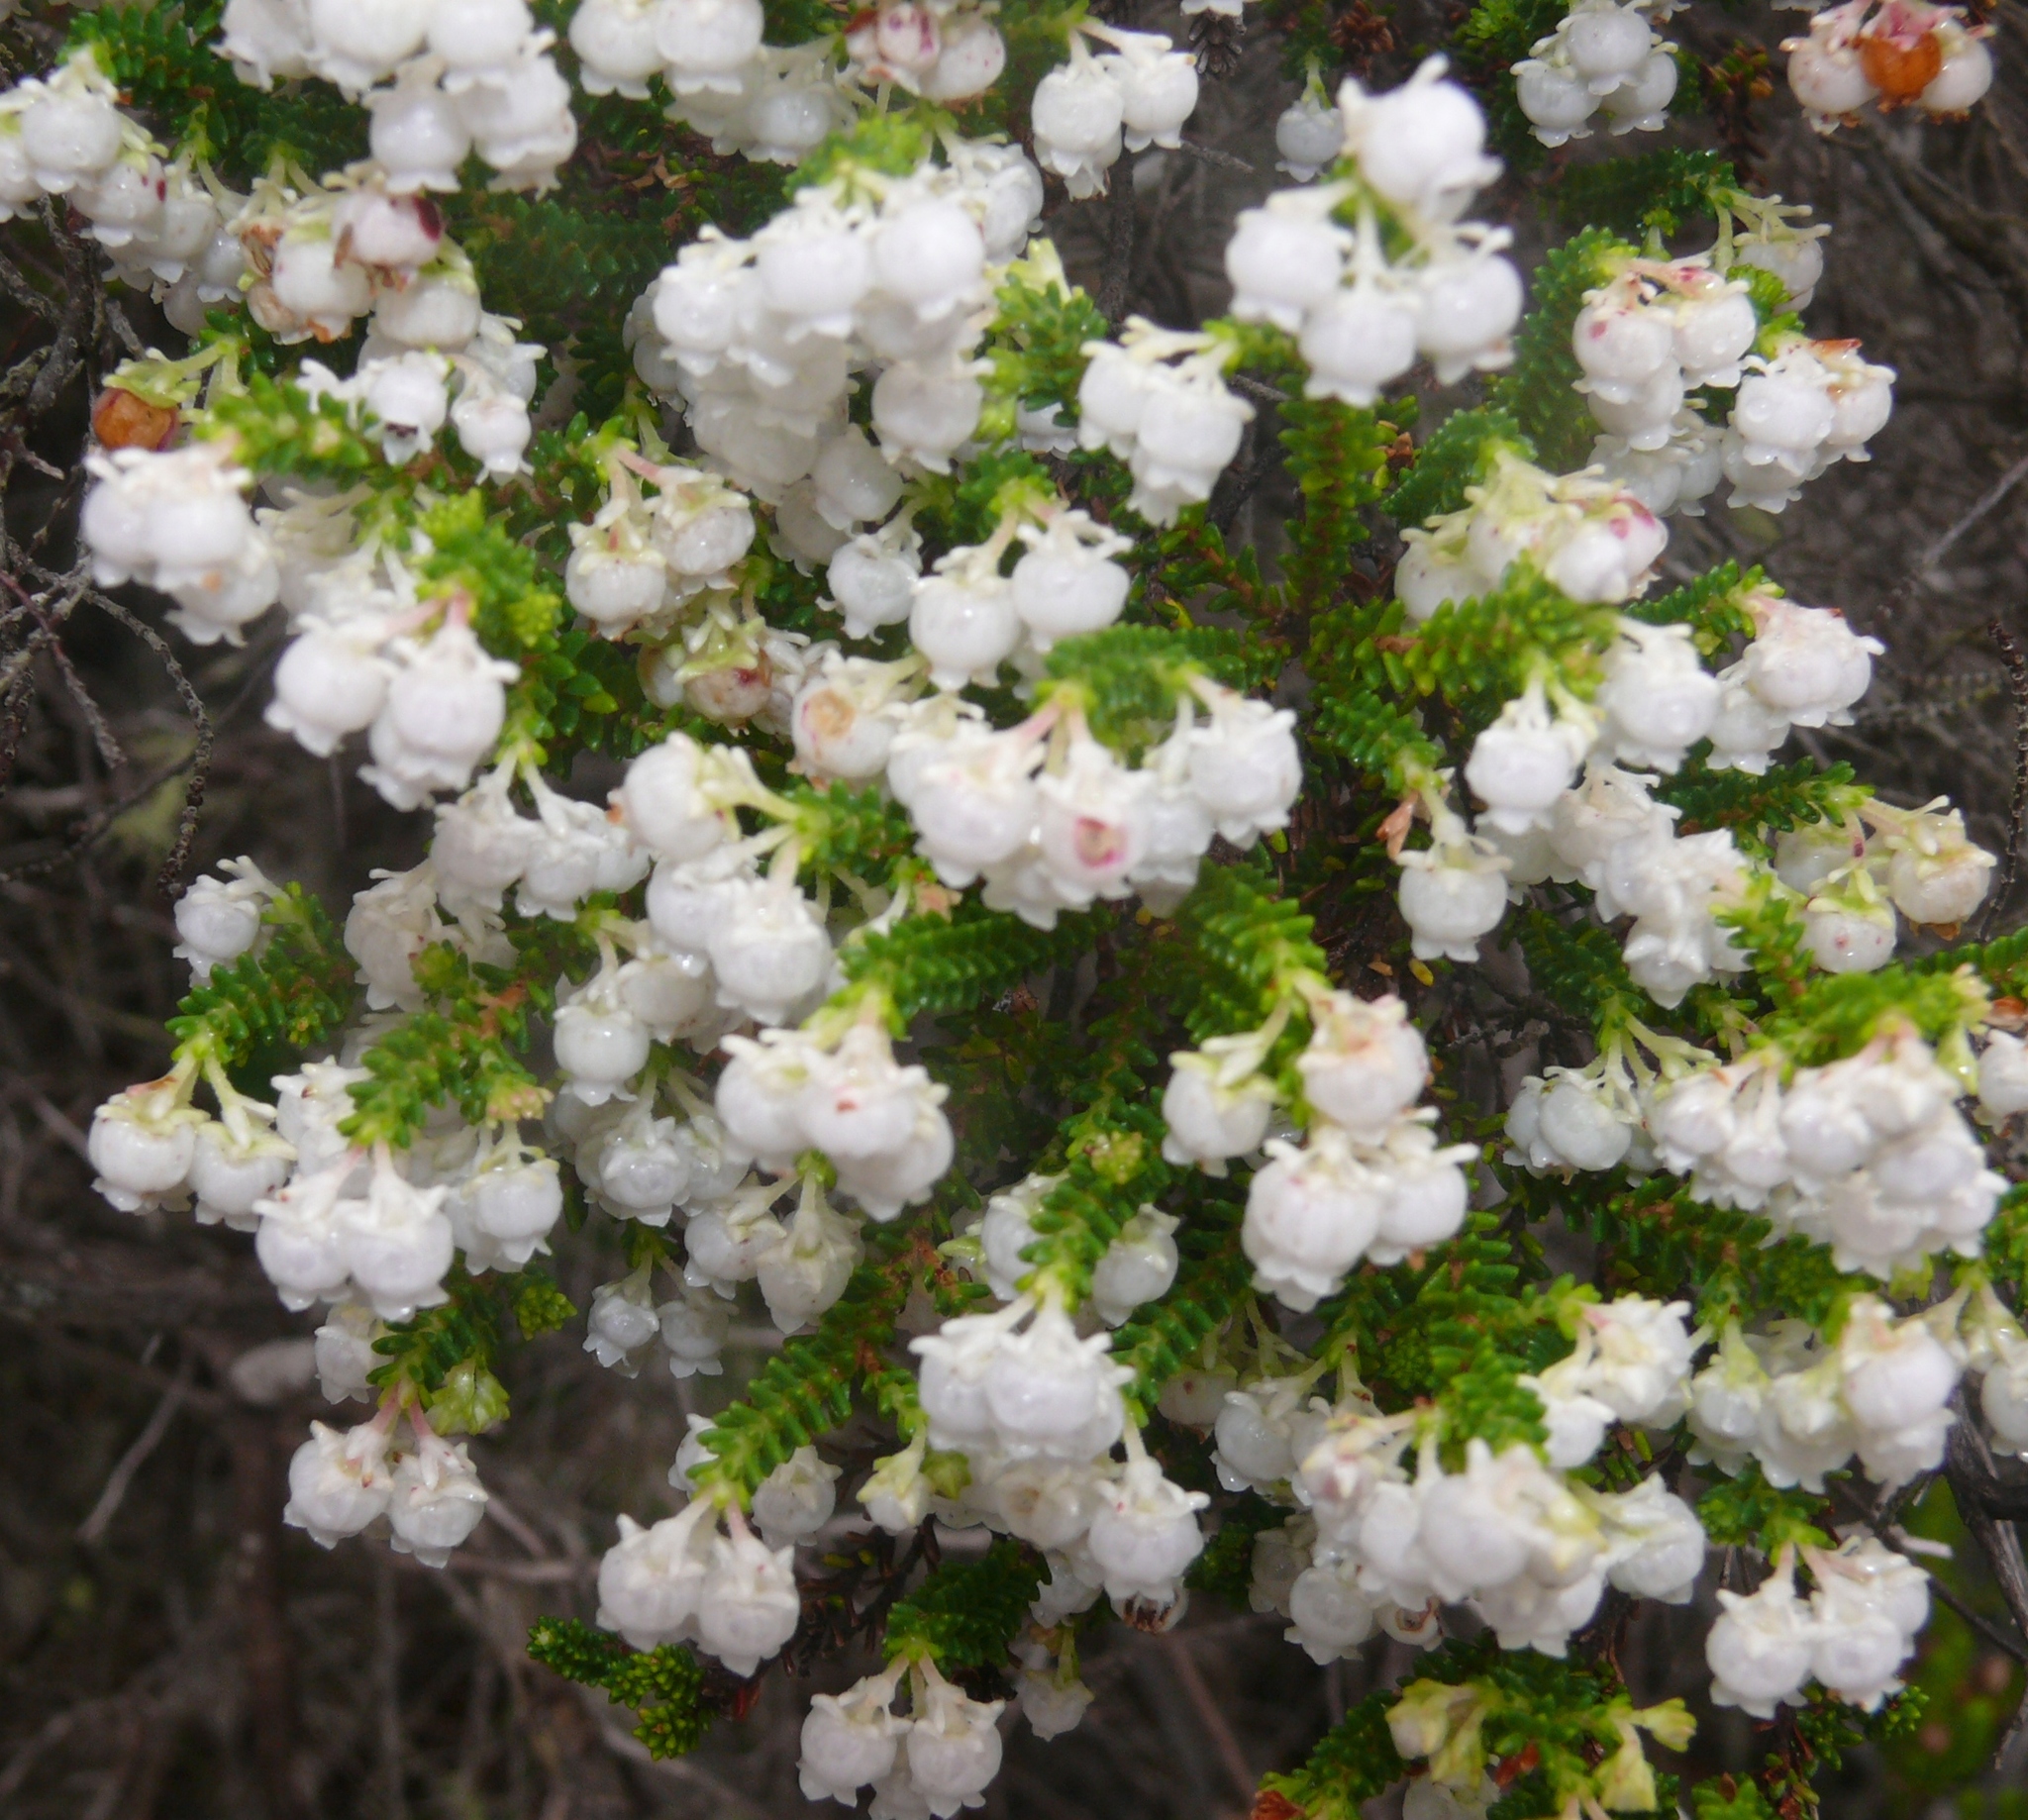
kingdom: Plantae
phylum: Tracheophyta
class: Magnoliopsida
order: Ericales
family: Ericaceae
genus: Erica
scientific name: Erica formosa
